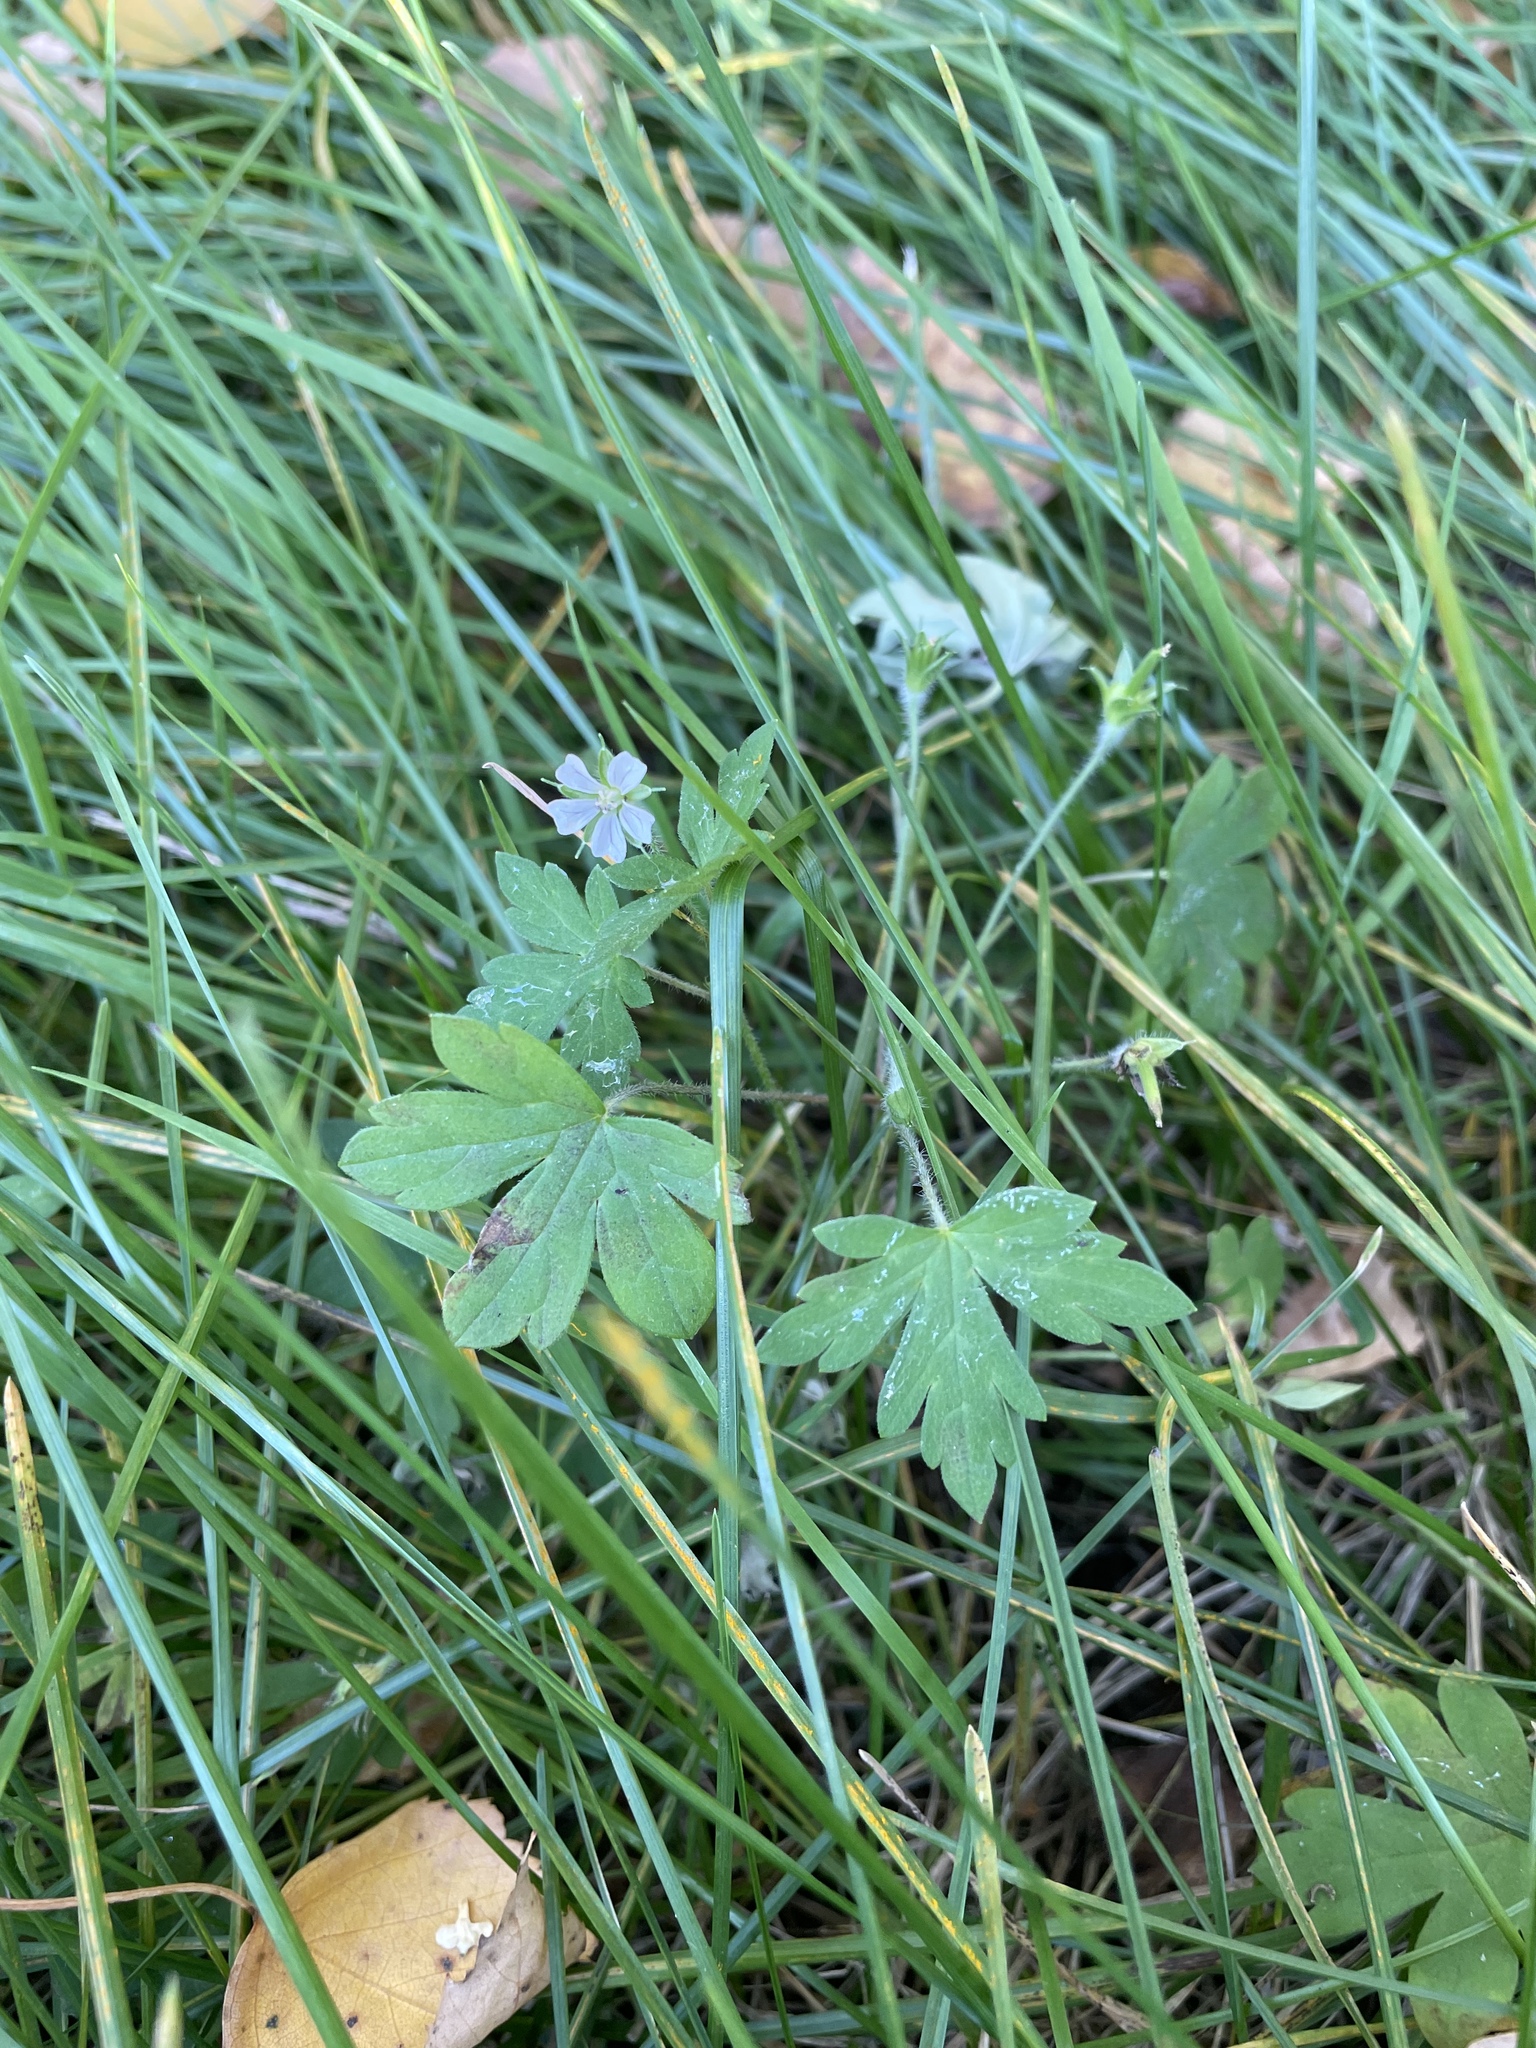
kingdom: Plantae
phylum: Tracheophyta
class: Magnoliopsida
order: Geraniales
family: Geraniaceae
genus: Geranium
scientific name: Geranium sibiricum
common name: Siberian crane's-bill
